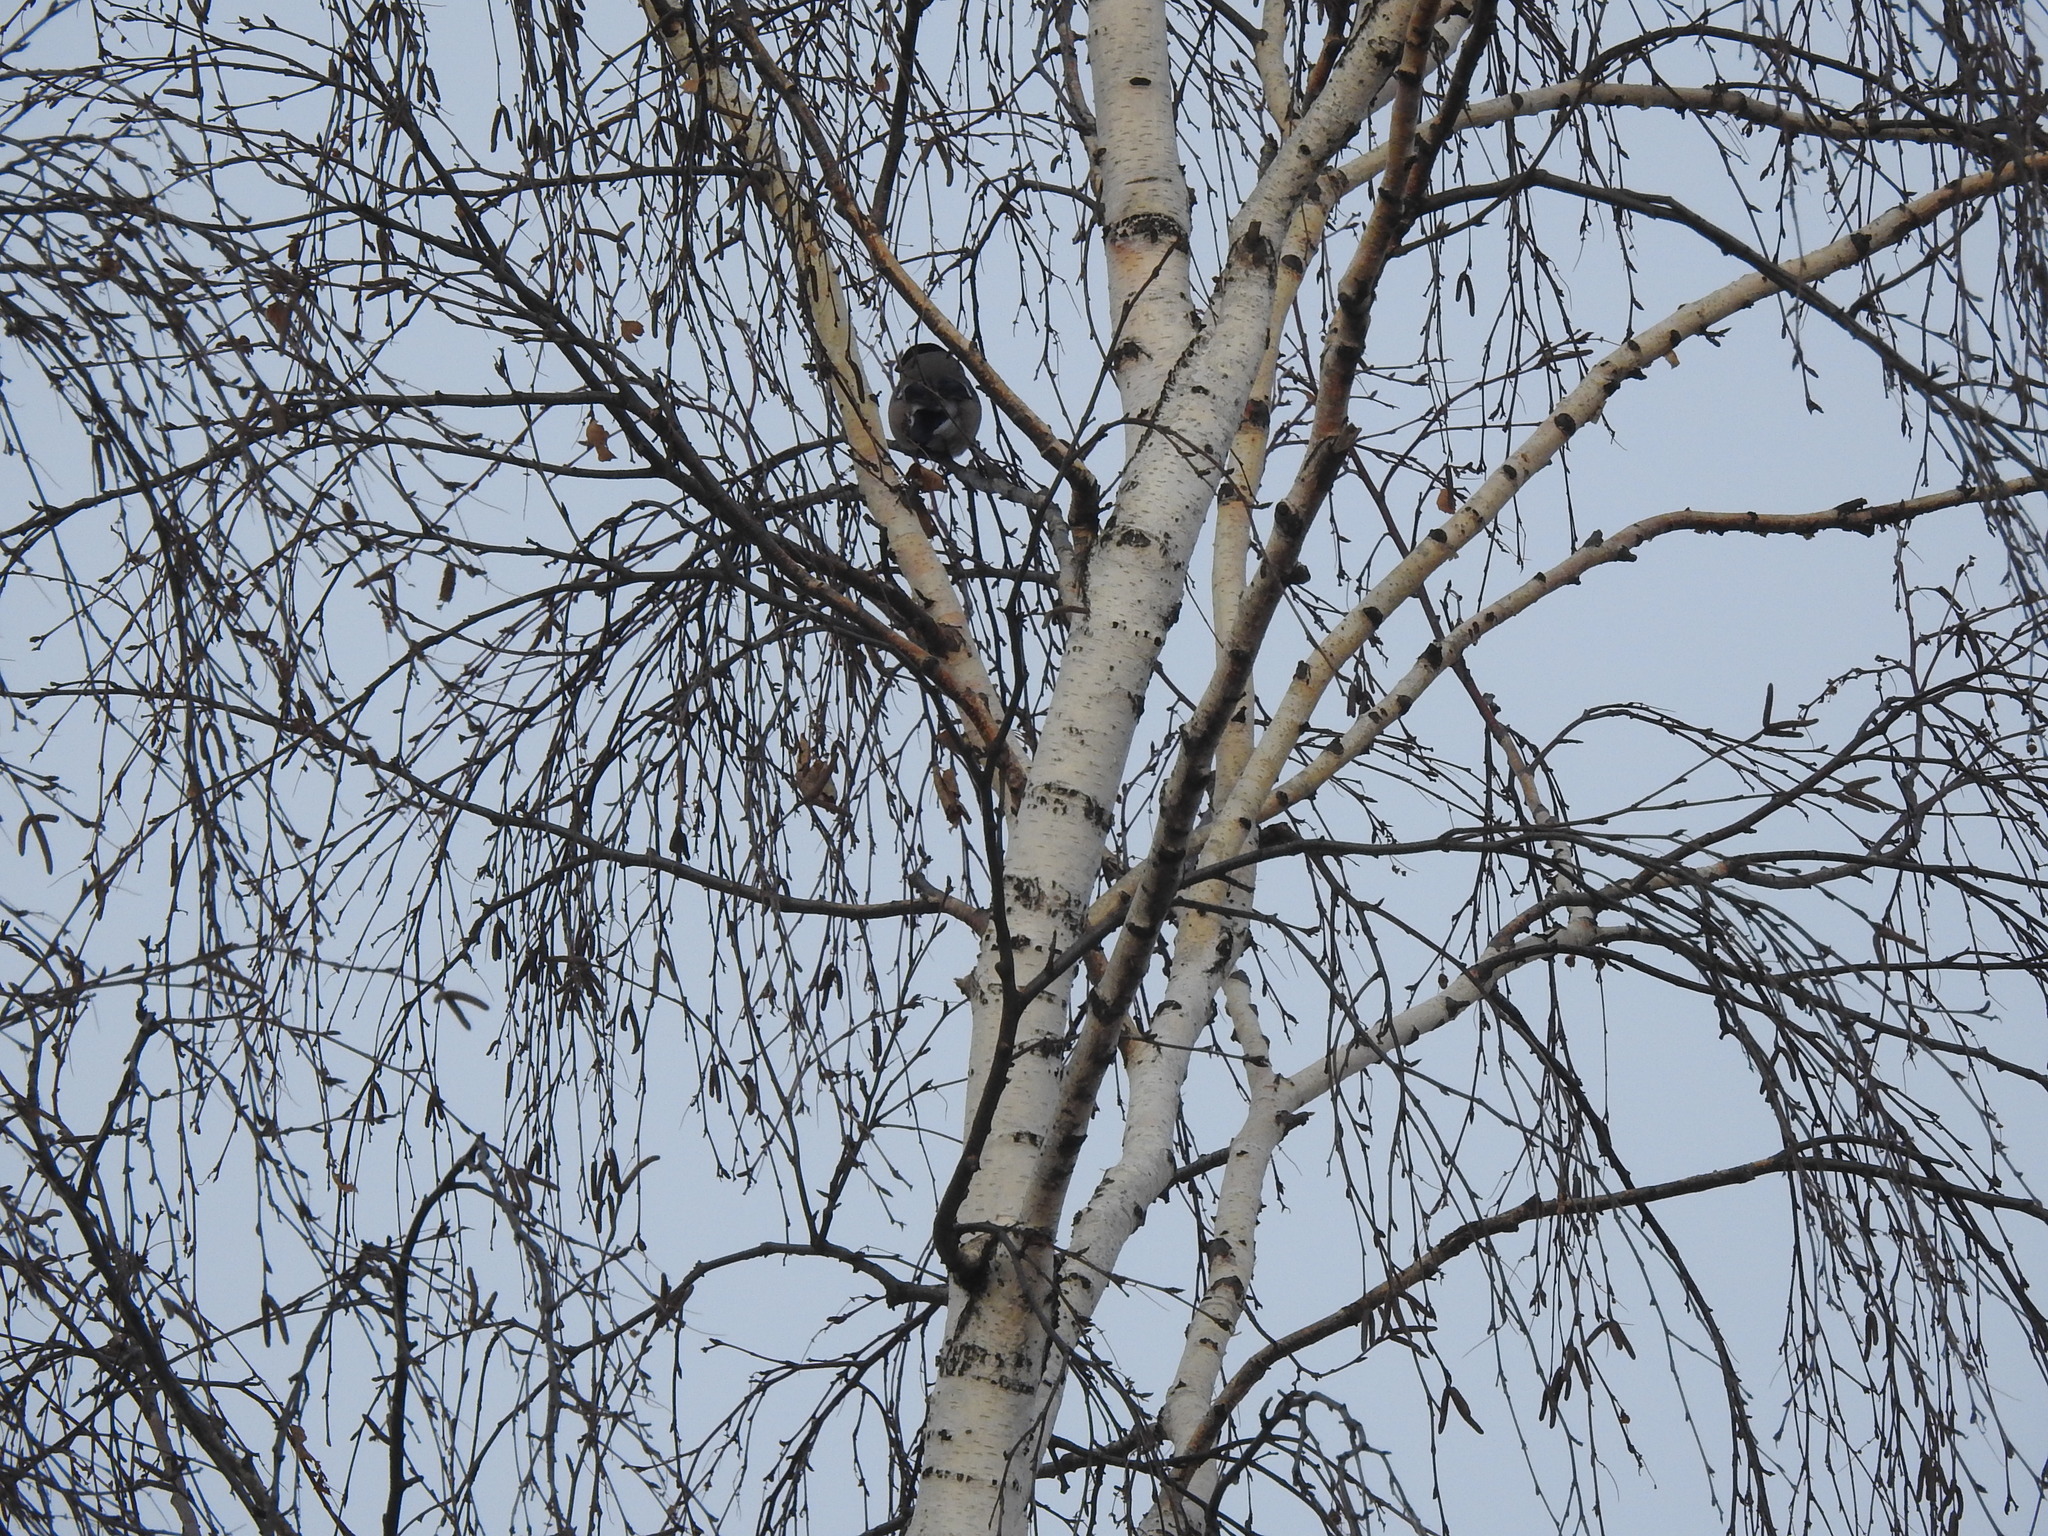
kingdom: Animalia
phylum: Chordata
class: Aves
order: Passeriformes
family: Fringillidae
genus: Pyrrhula
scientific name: Pyrrhula pyrrhula
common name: Eurasian bullfinch
